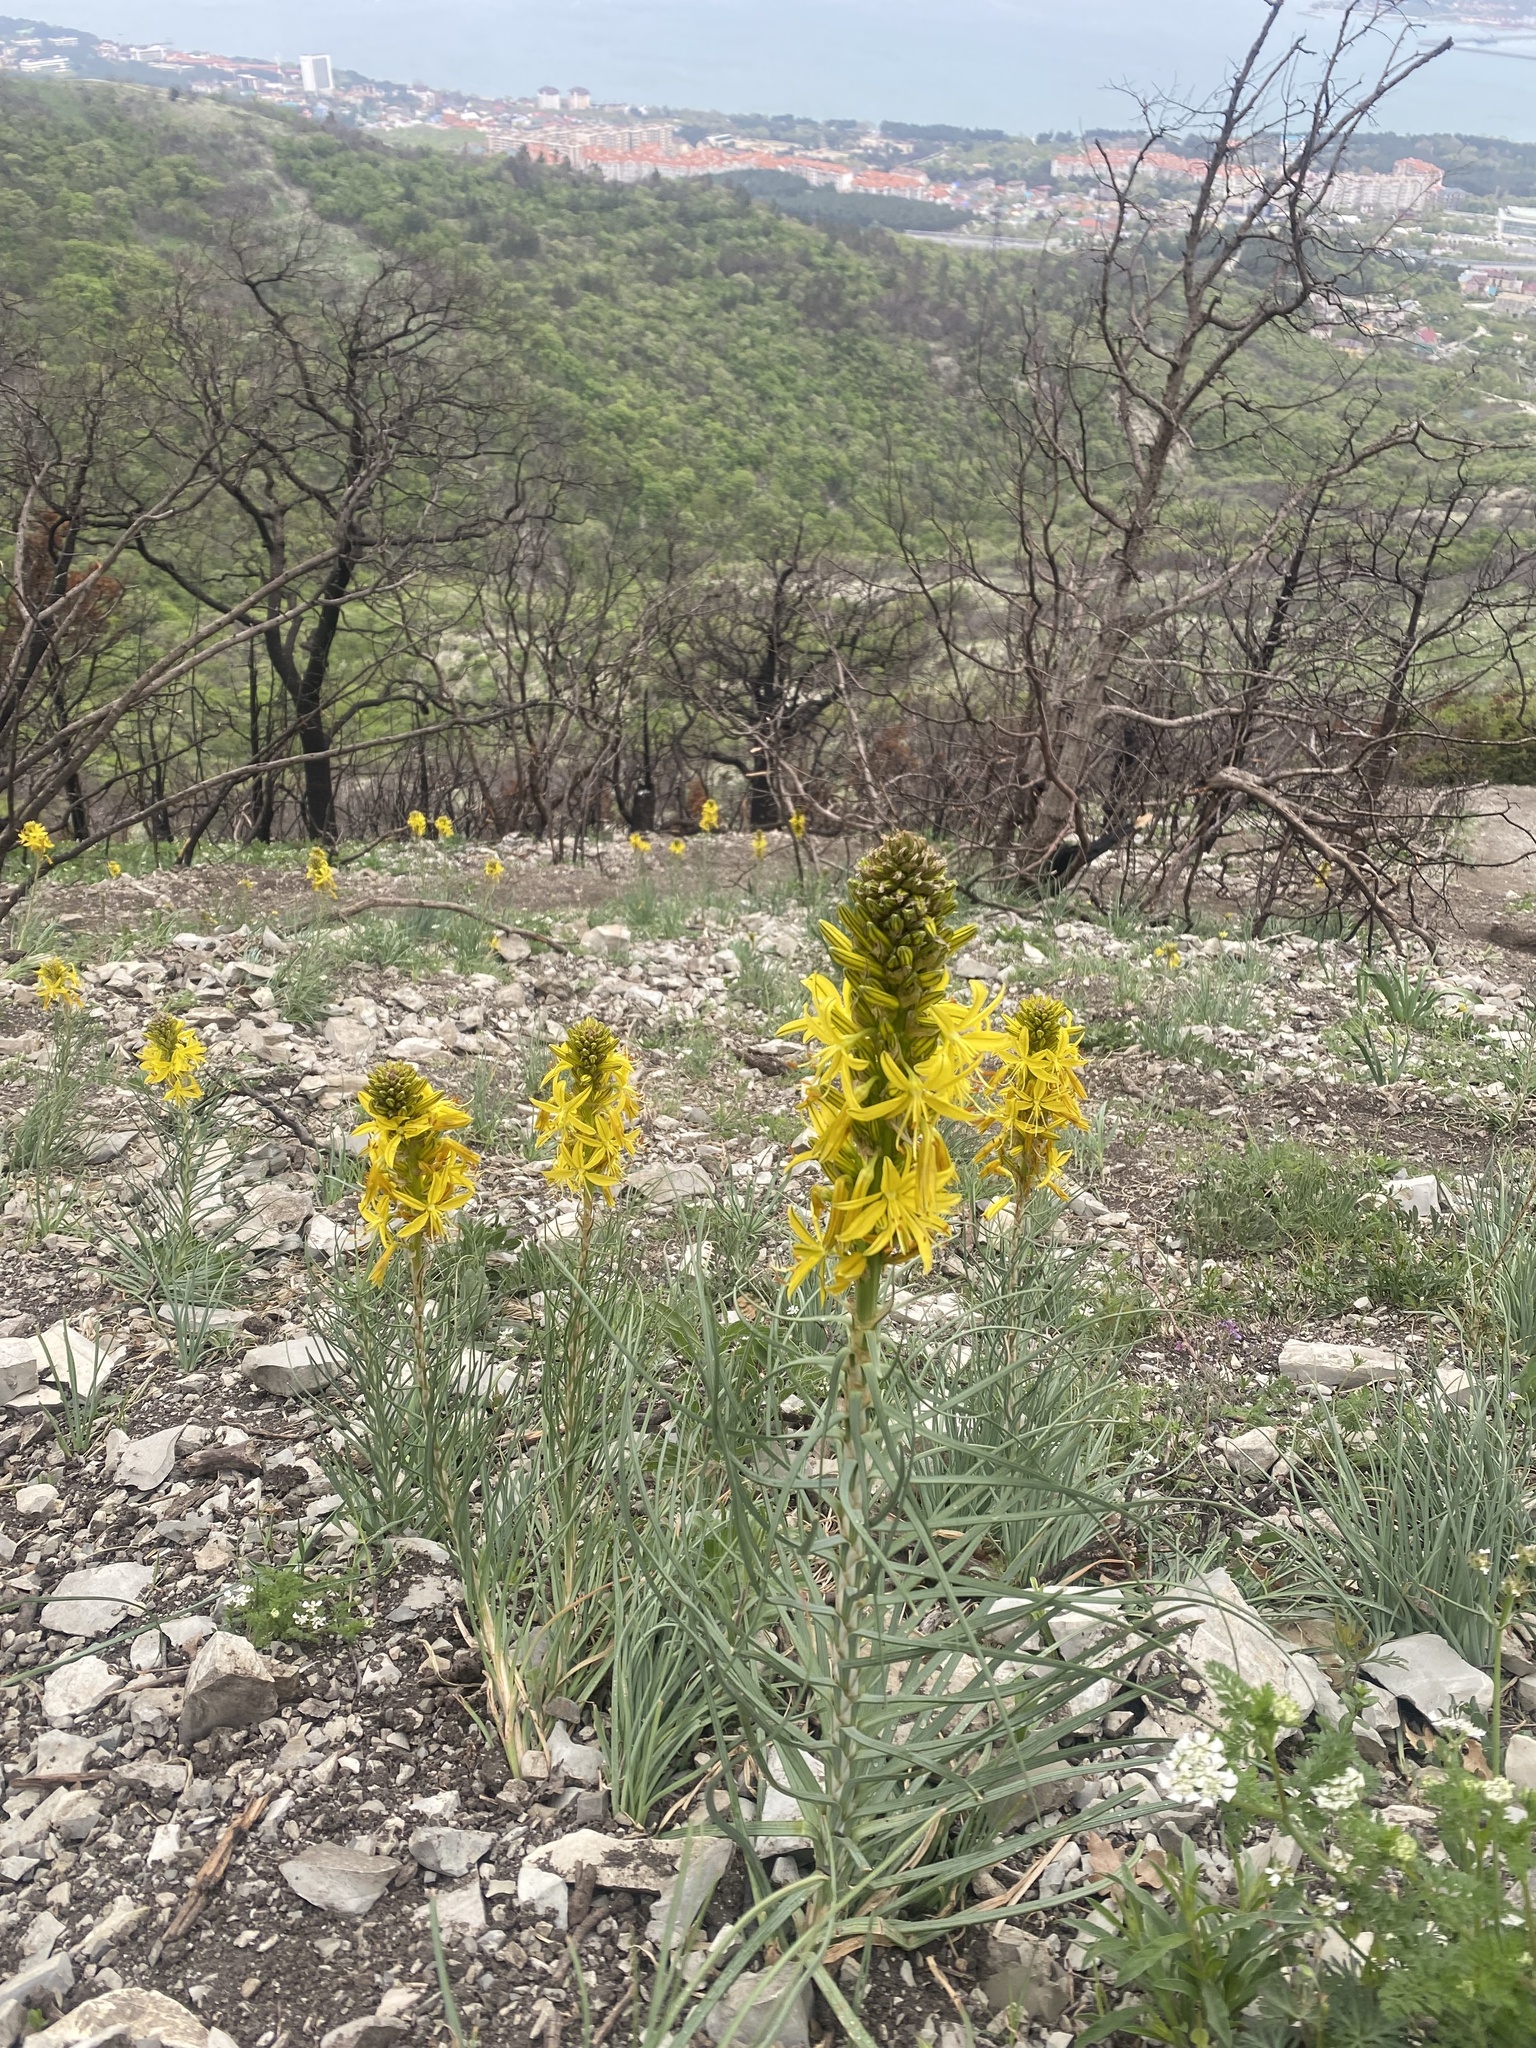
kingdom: Plantae
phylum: Tracheophyta
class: Liliopsida
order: Asparagales
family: Asphodelaceae
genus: Asphodeline
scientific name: Asphodeline lutea
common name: Yellow asphodel
